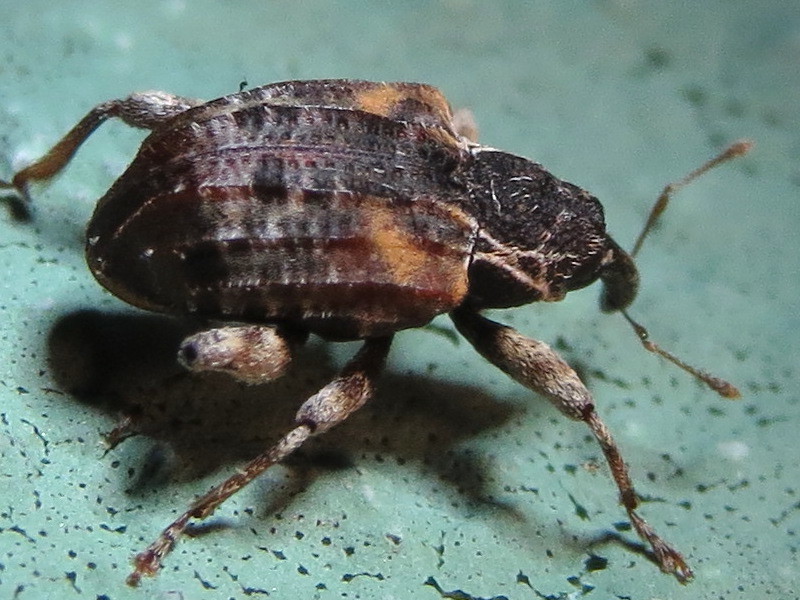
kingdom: Animalia
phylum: Arthropoda
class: Insecta
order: Coleoptera
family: Curculionidae
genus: Conotrachelus
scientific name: Conotrachelus anaglypticus
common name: Cambium curculio
